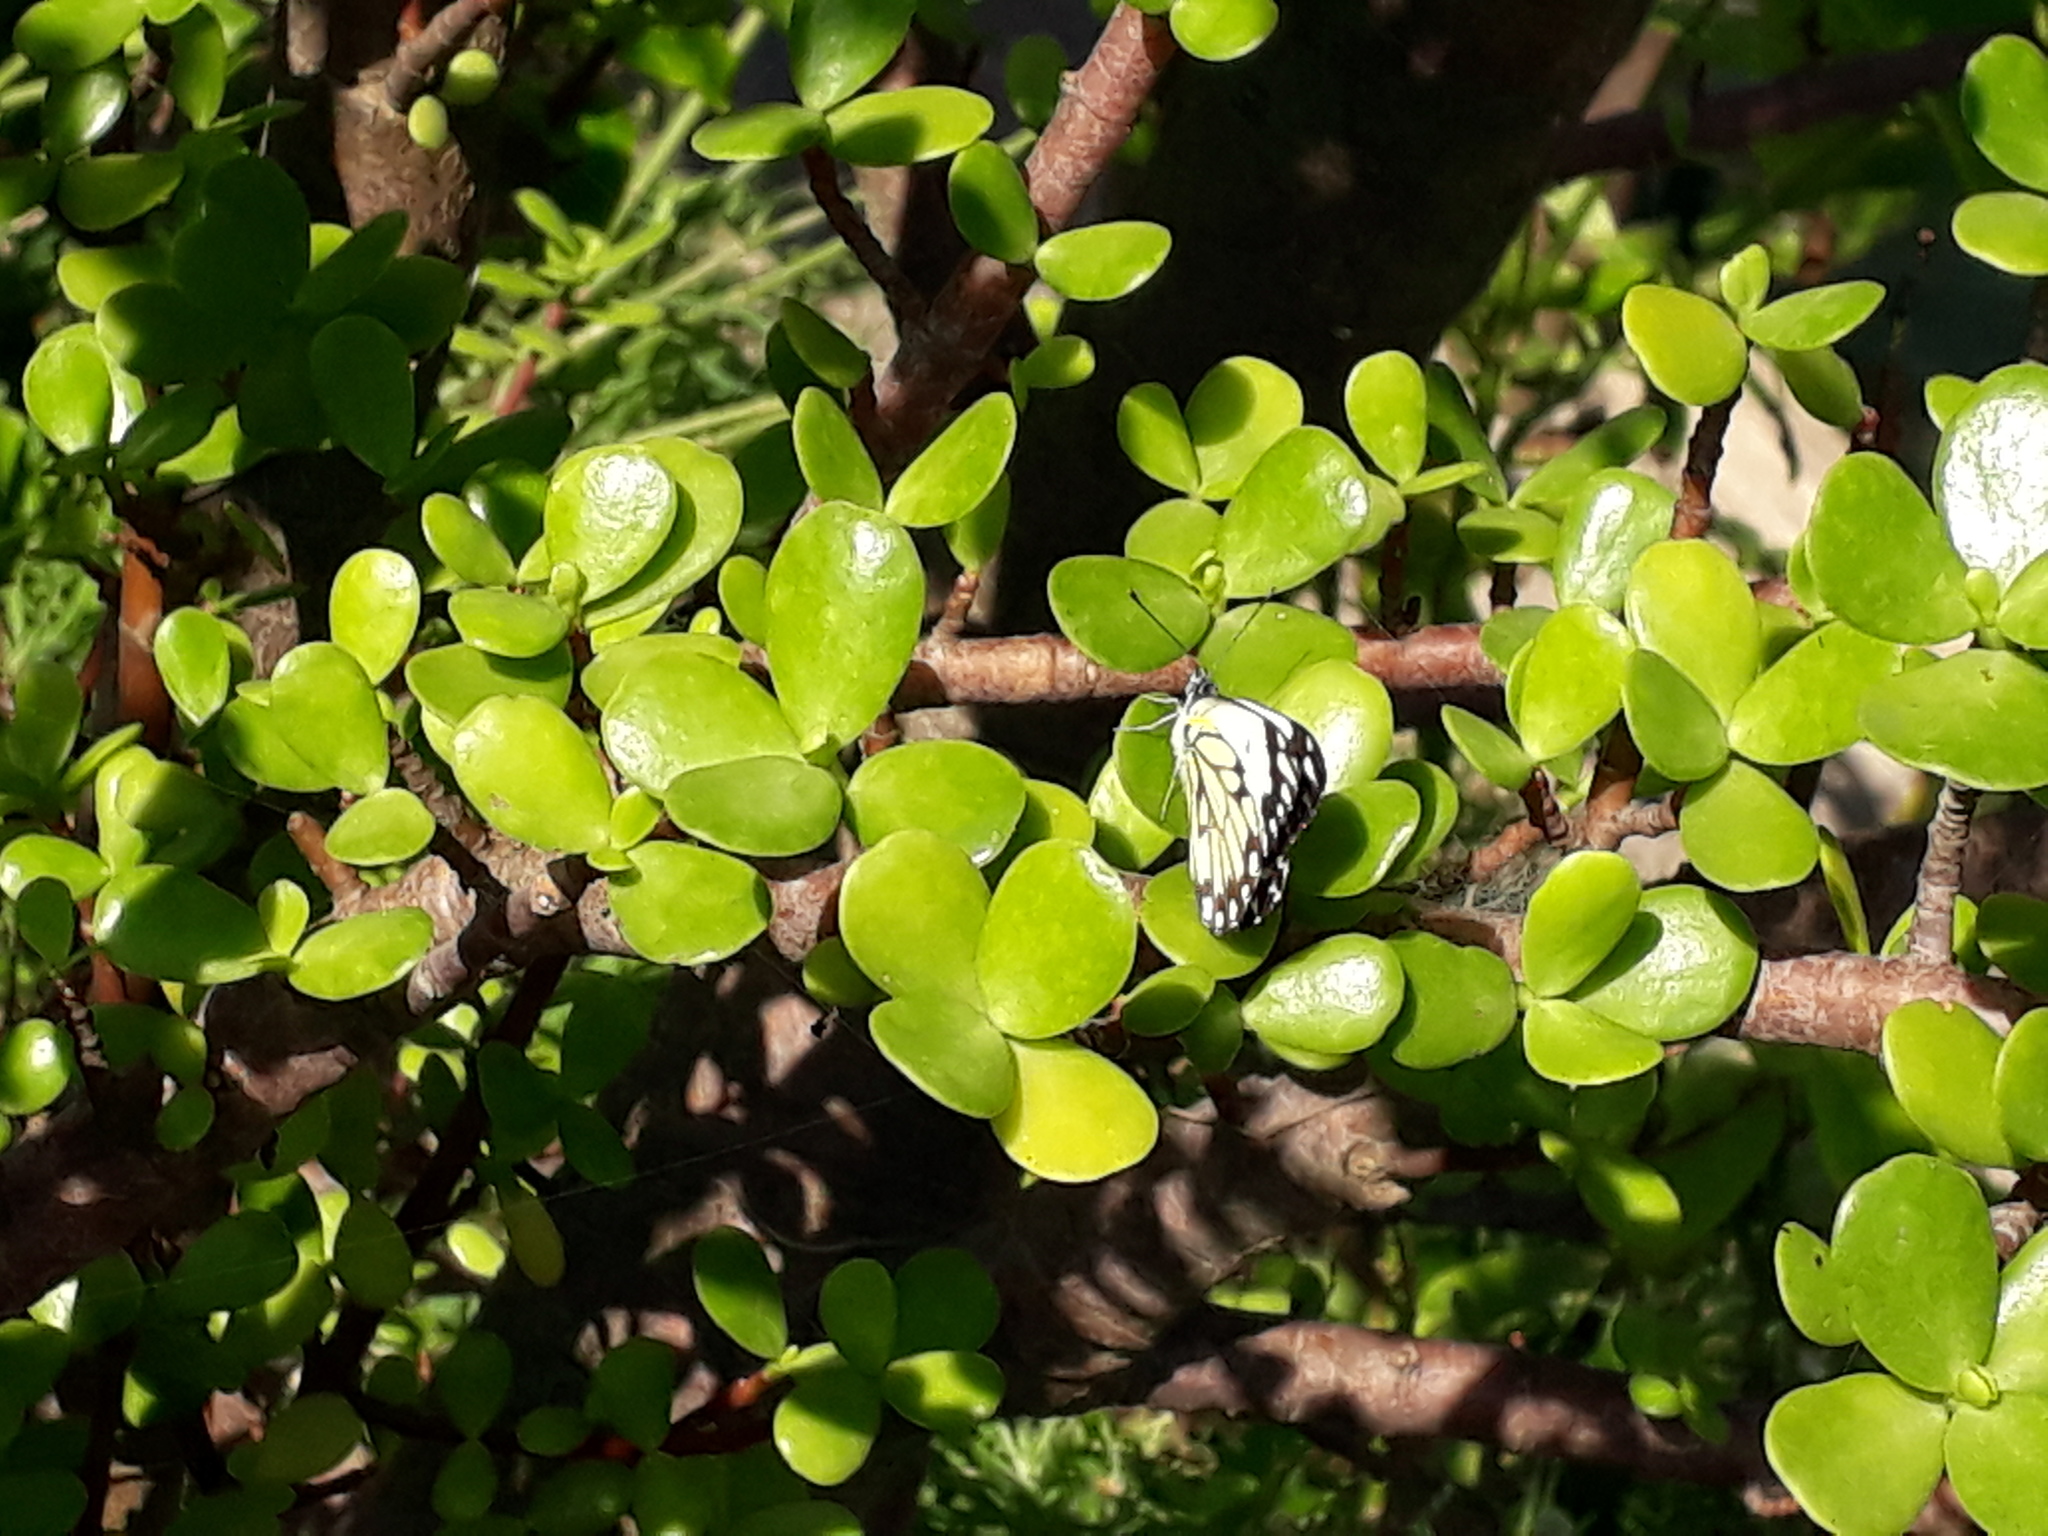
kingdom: Animalia
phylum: Arthropoda
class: Insecta
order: Lepidoptera
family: Pieridae
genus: Belenois
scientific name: Belenois creona
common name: African caper white
